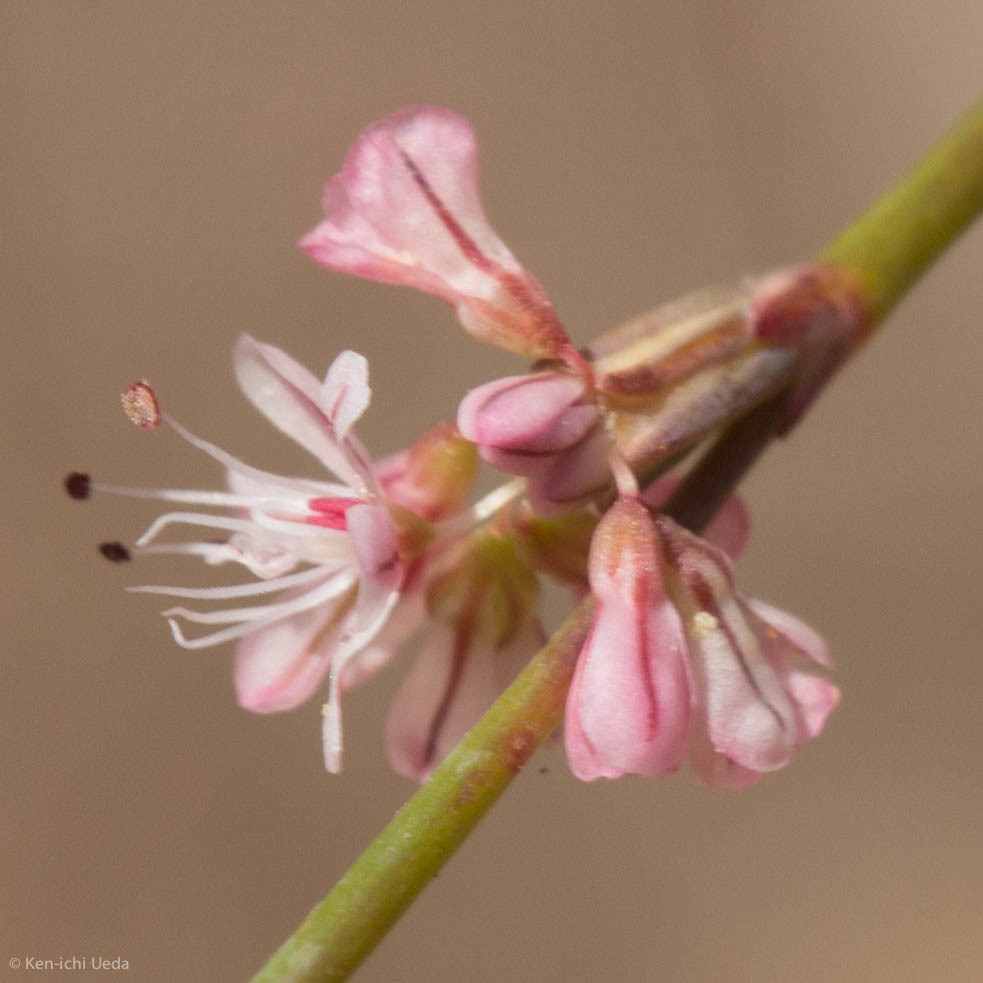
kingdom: Plantae
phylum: Tracheophyta
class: Magnoliopsida
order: Caryophyllales
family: Polygonaceae
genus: Eriogonum
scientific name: Eriogonum vimineum
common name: Wicker buckwheat
